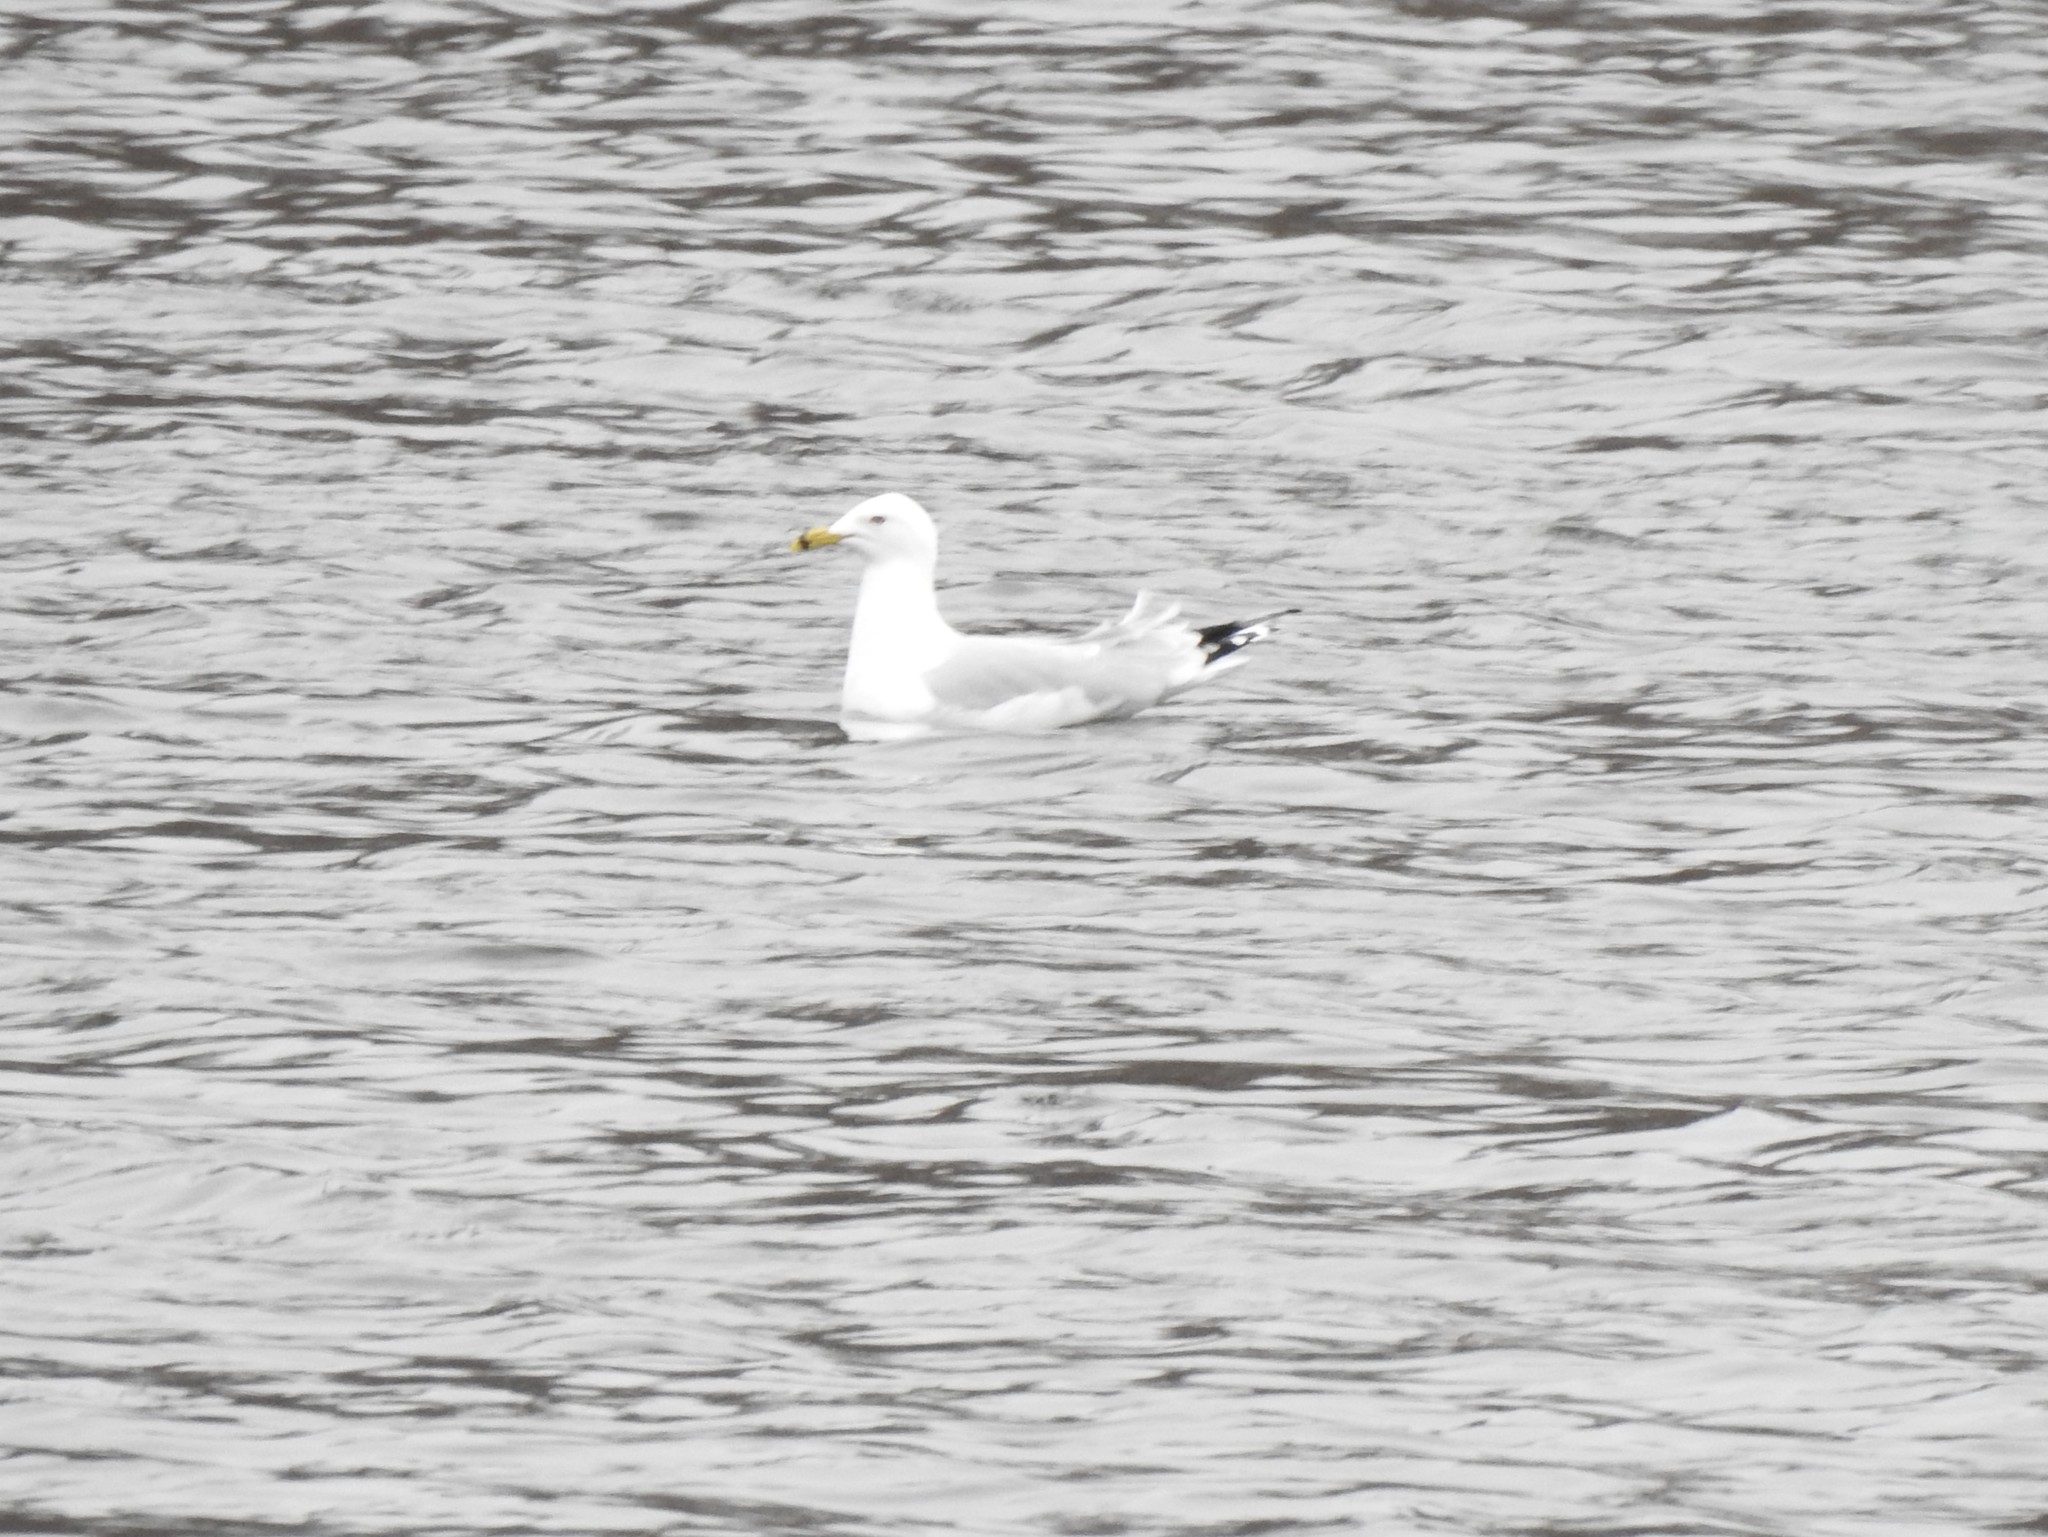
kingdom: Animalia
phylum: Chordata
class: Aves
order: Charadriiformes
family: Laridae
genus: Larus
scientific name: Larus delawarensis
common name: Ring-billed gull
